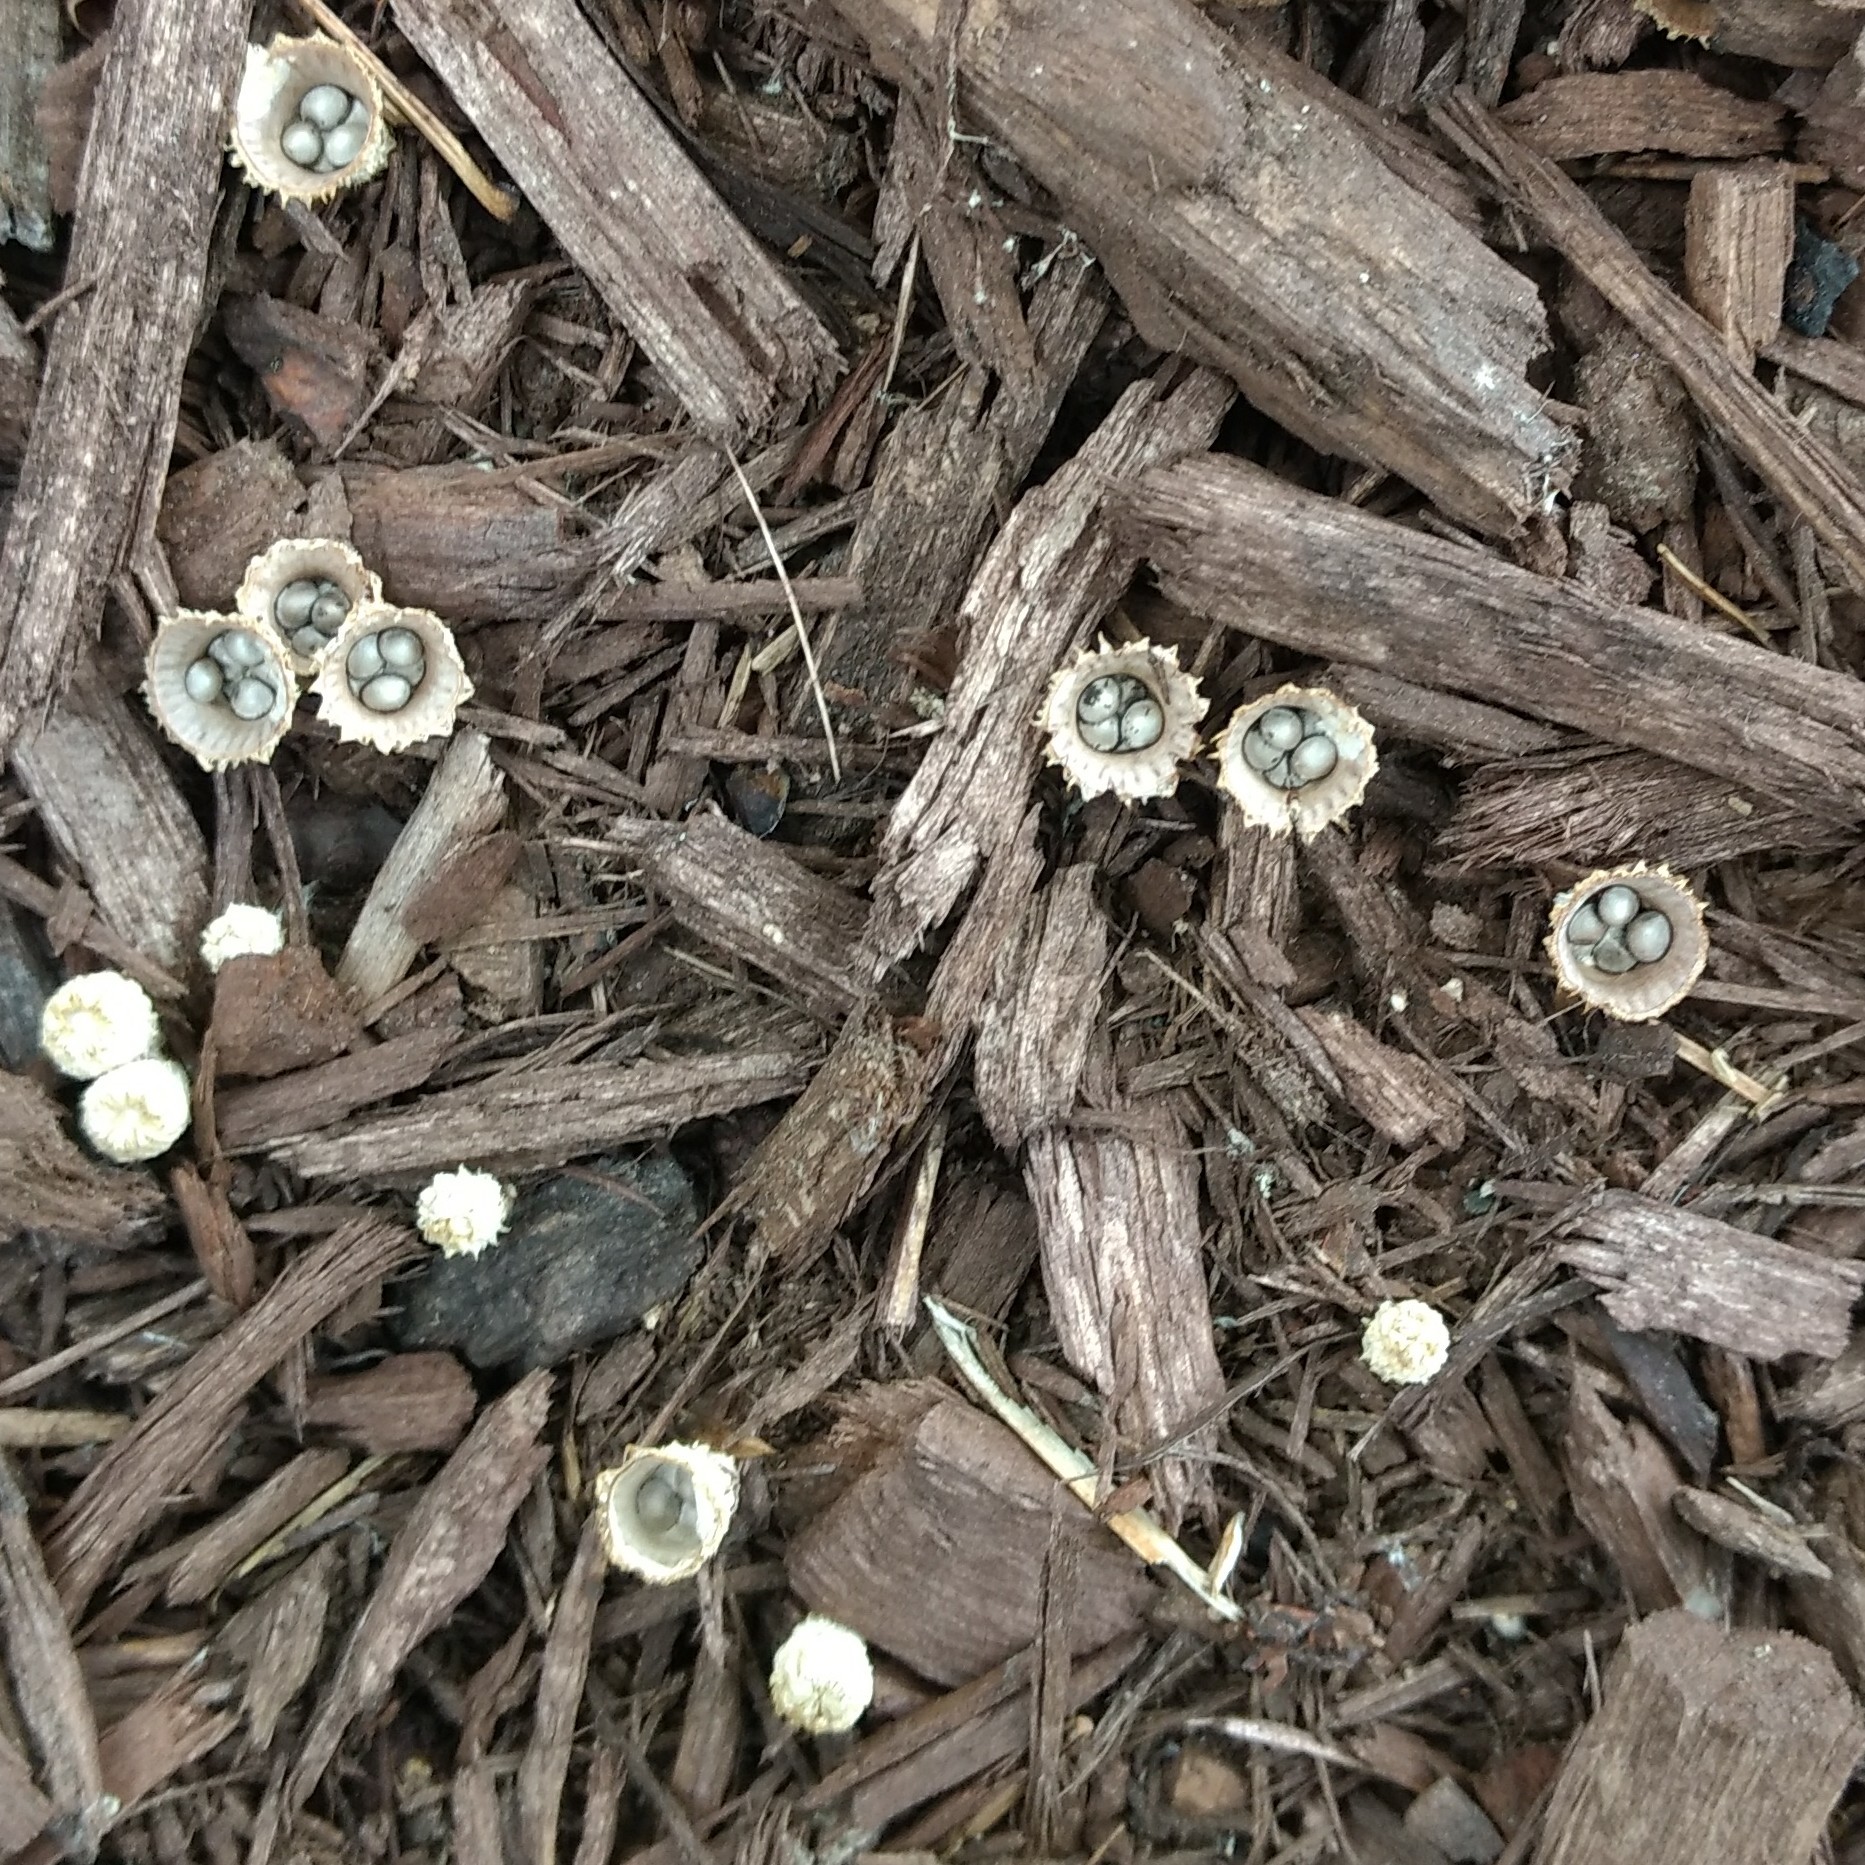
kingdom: Fungi
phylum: Basidiomycota
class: Agaricomycetes
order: Agaricales
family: Agaricaceae
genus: Cyathus
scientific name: Cyathus striatus
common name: Fluted bird's nest
